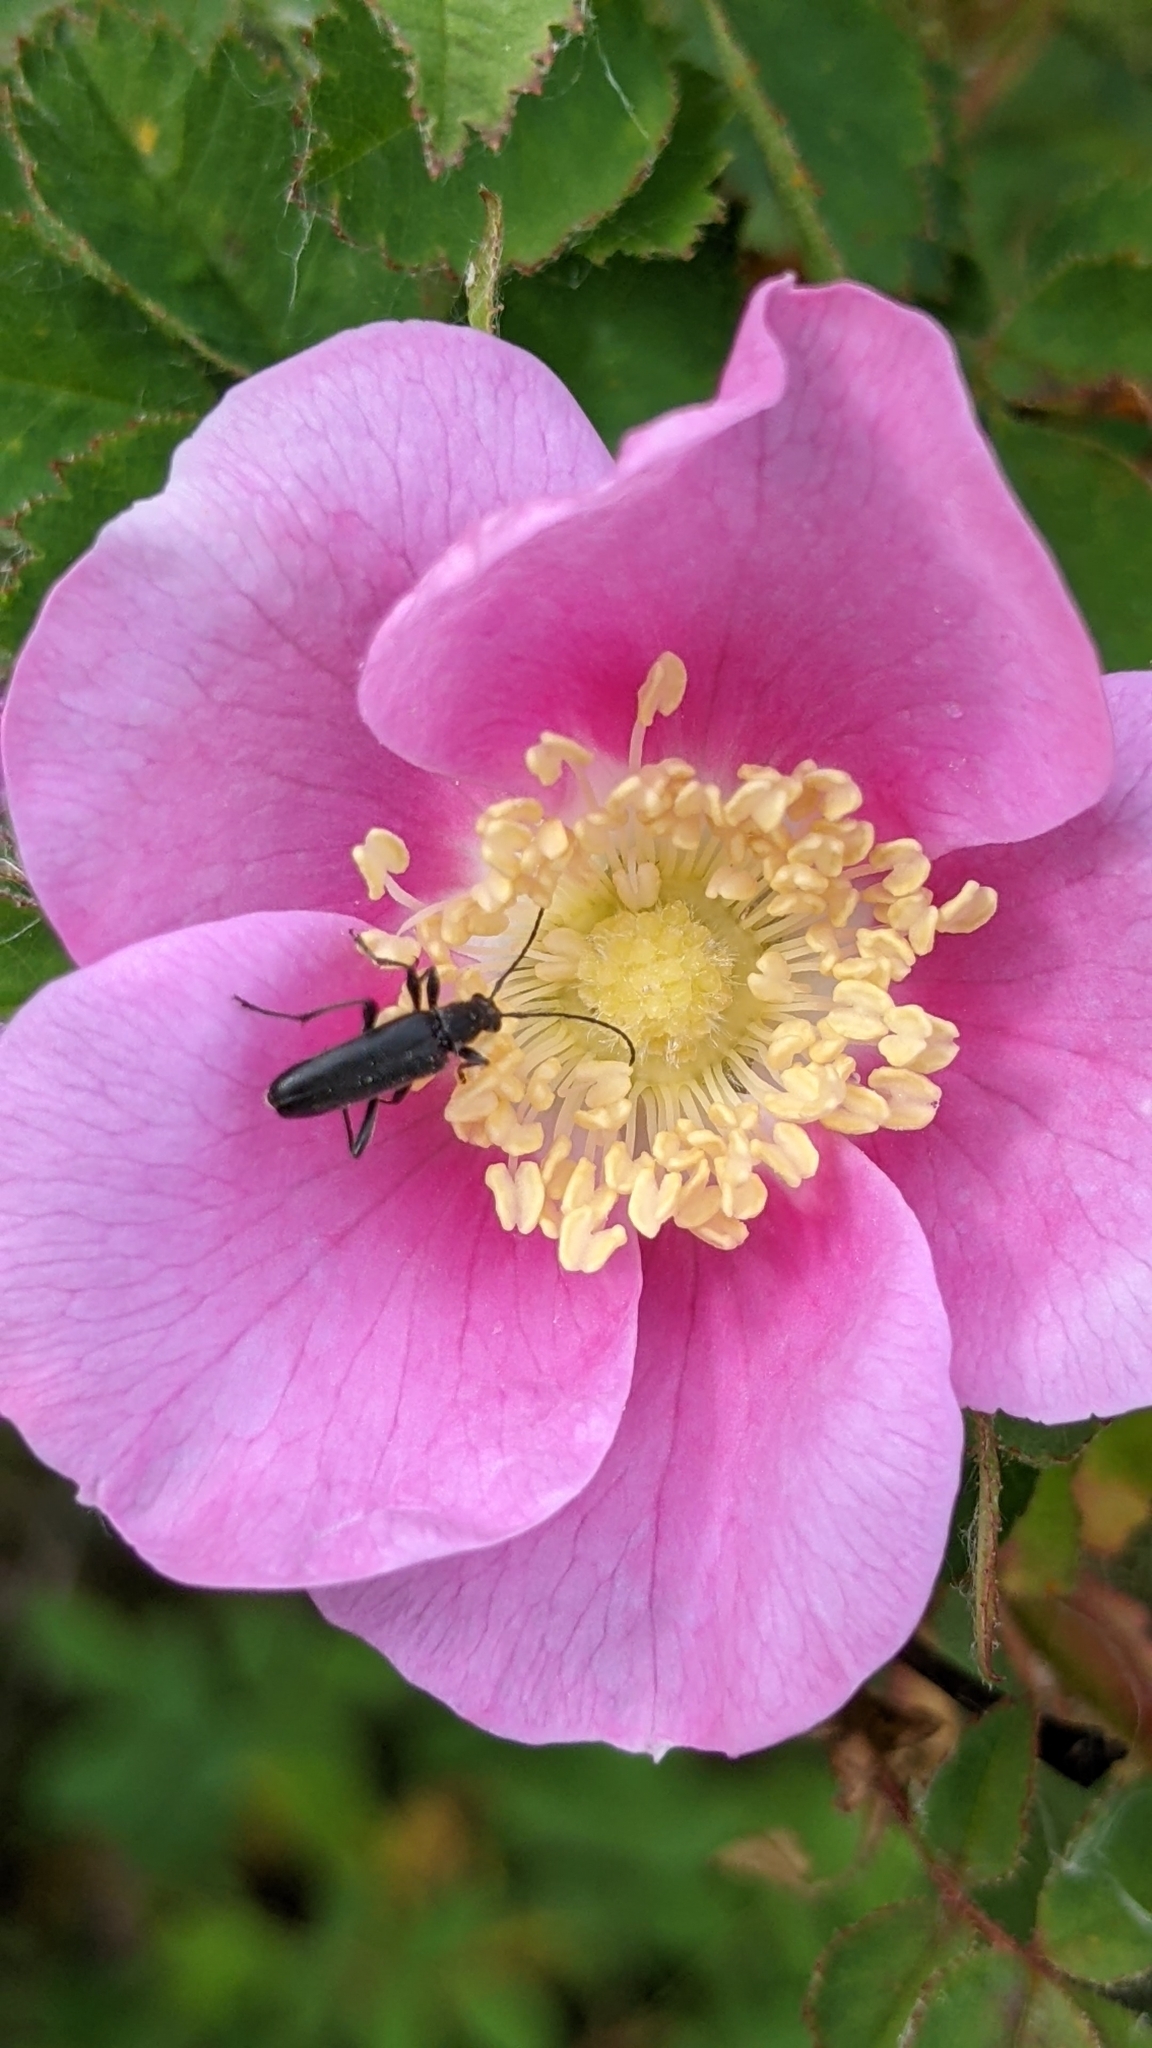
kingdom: Animalia
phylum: Arthropoda
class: Insecta
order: Coleoptera
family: Cerambycidae
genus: Grammoptera
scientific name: Grammoptera subargentata
